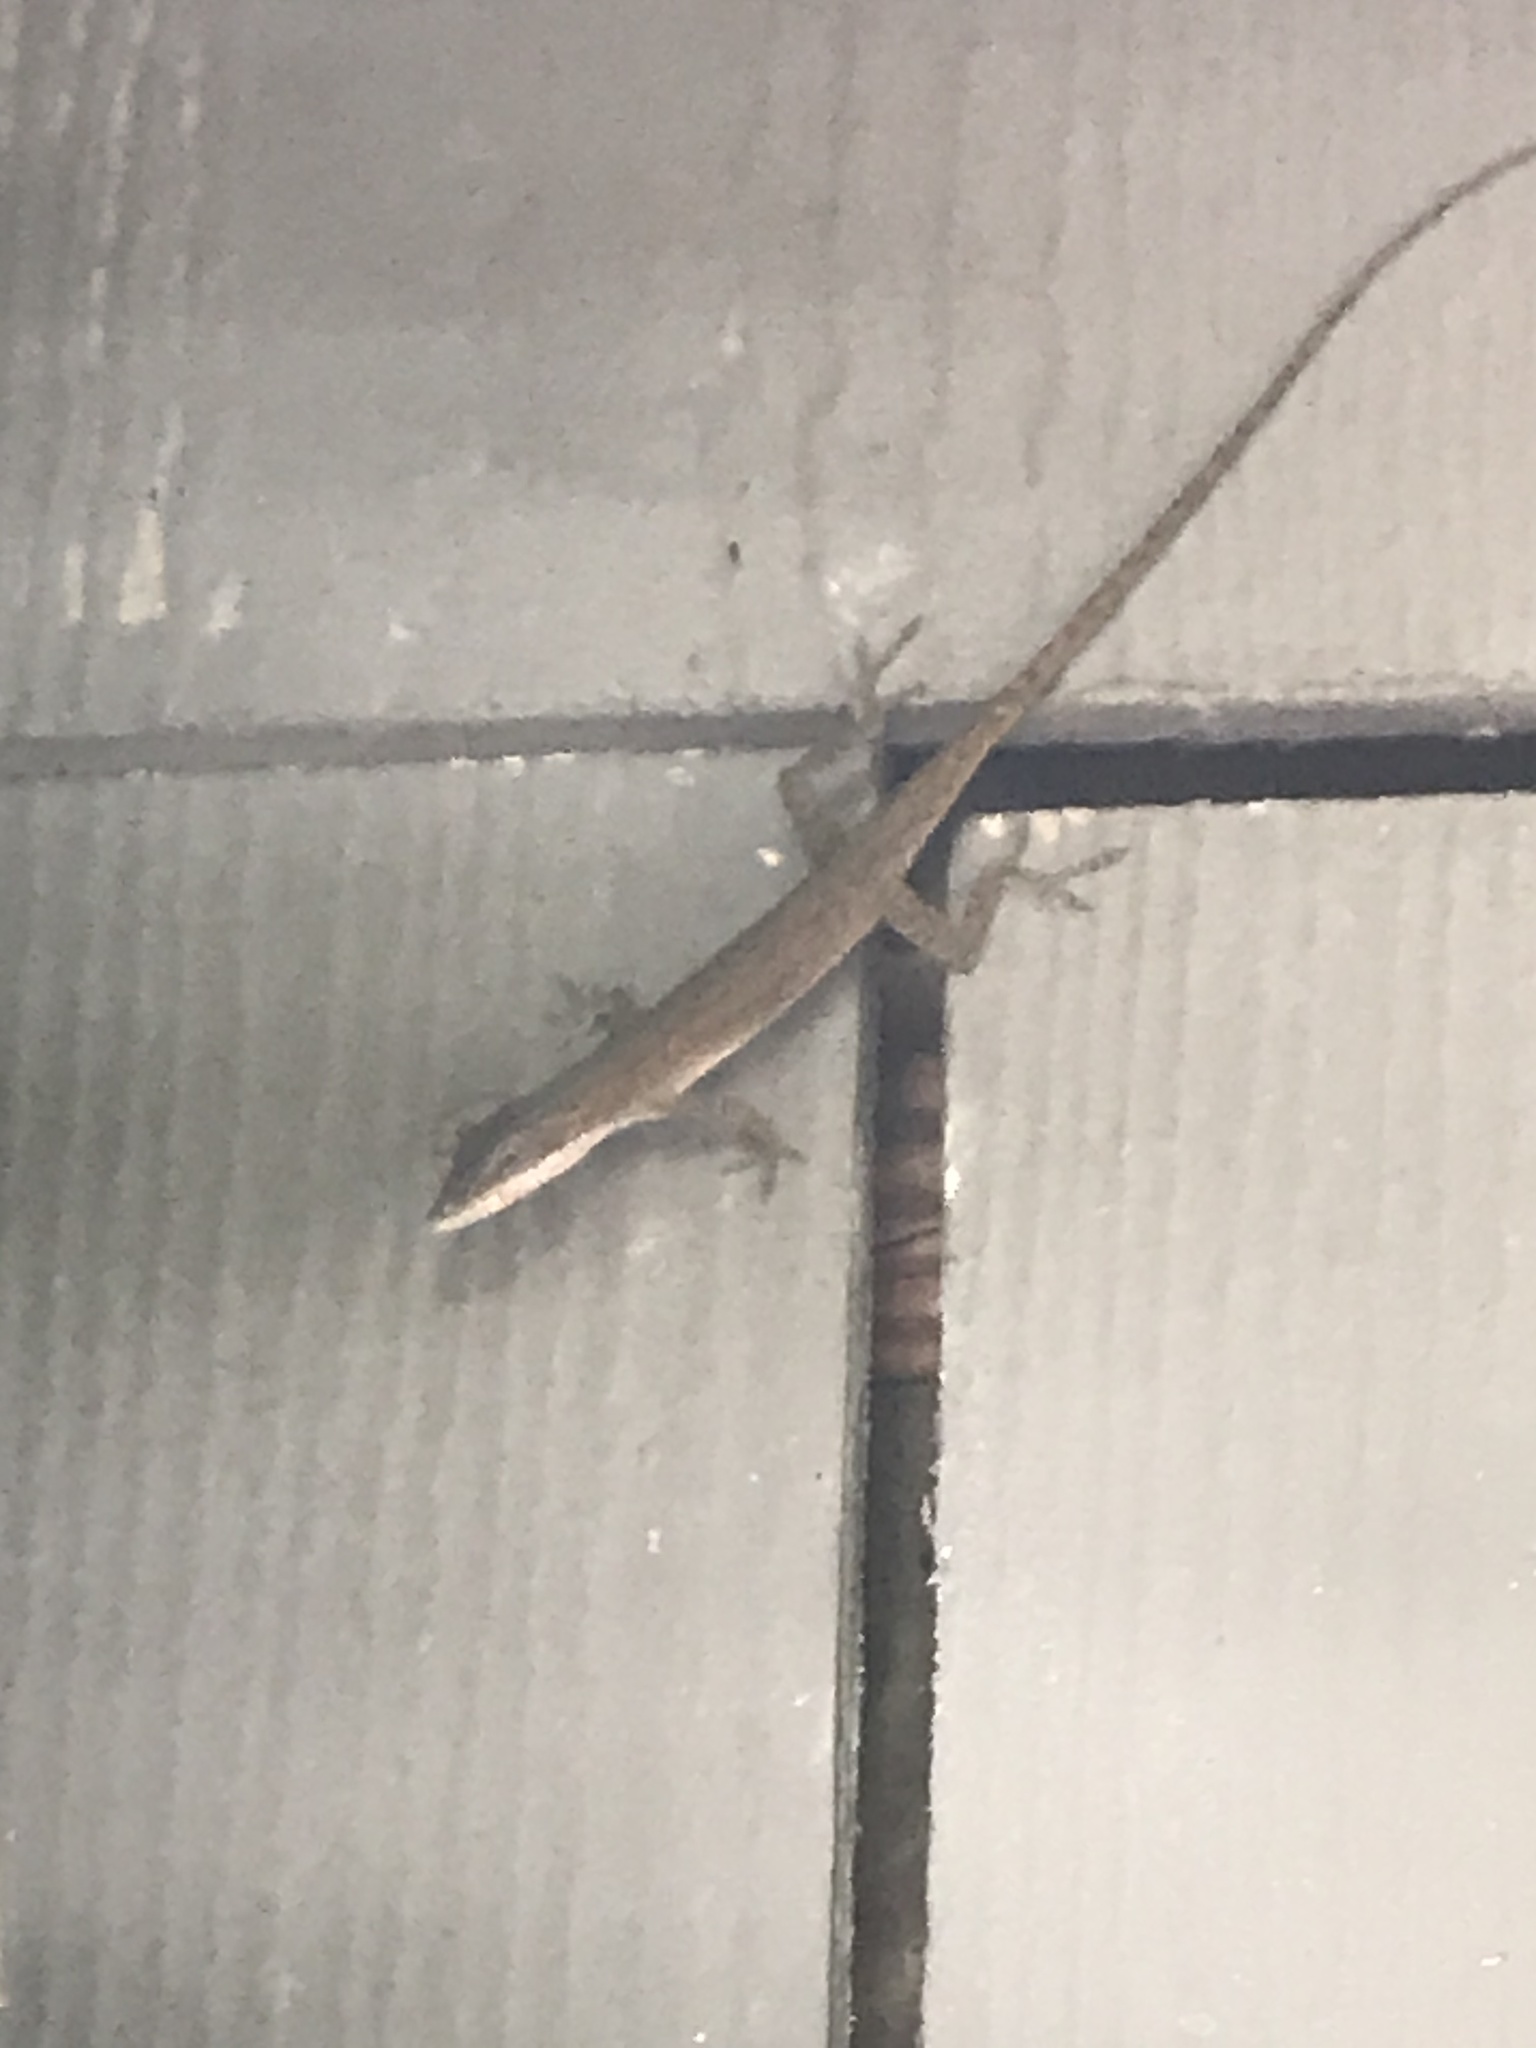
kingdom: Animalia
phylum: Chordata
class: Squamata
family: Dactyloidae
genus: Anolis
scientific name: Anolis carolinensis
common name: Green anole
